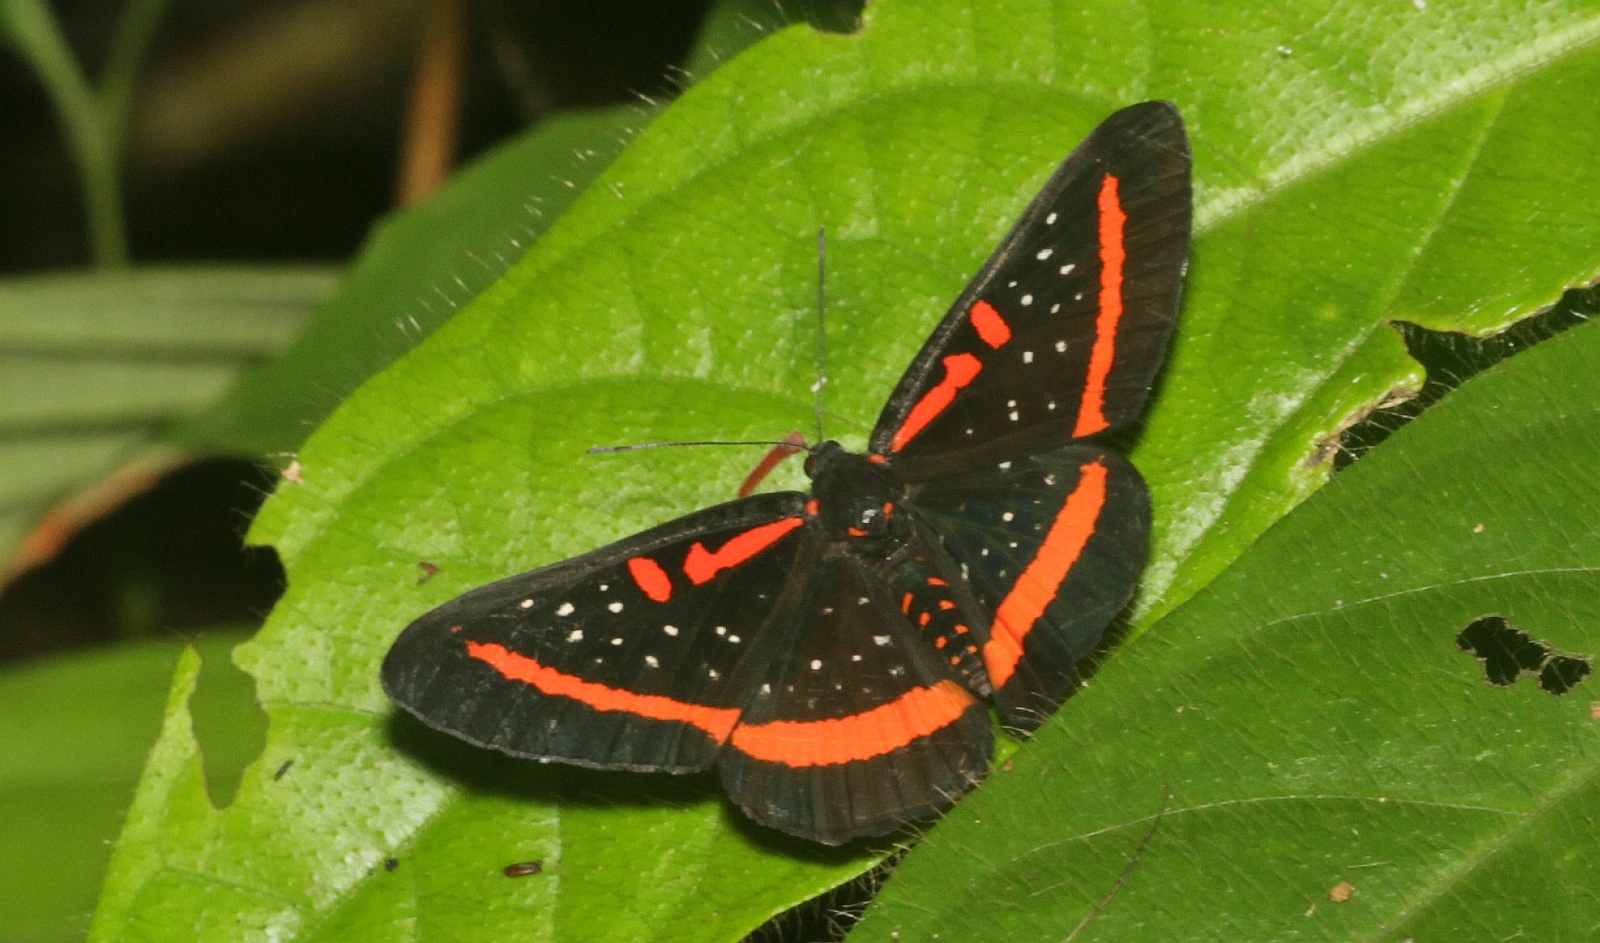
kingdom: Animalia
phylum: Arthropoda
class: Insecta
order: Lepidoptera
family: Riodinidae
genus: Amarynthis
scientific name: Amarynthis meneria
